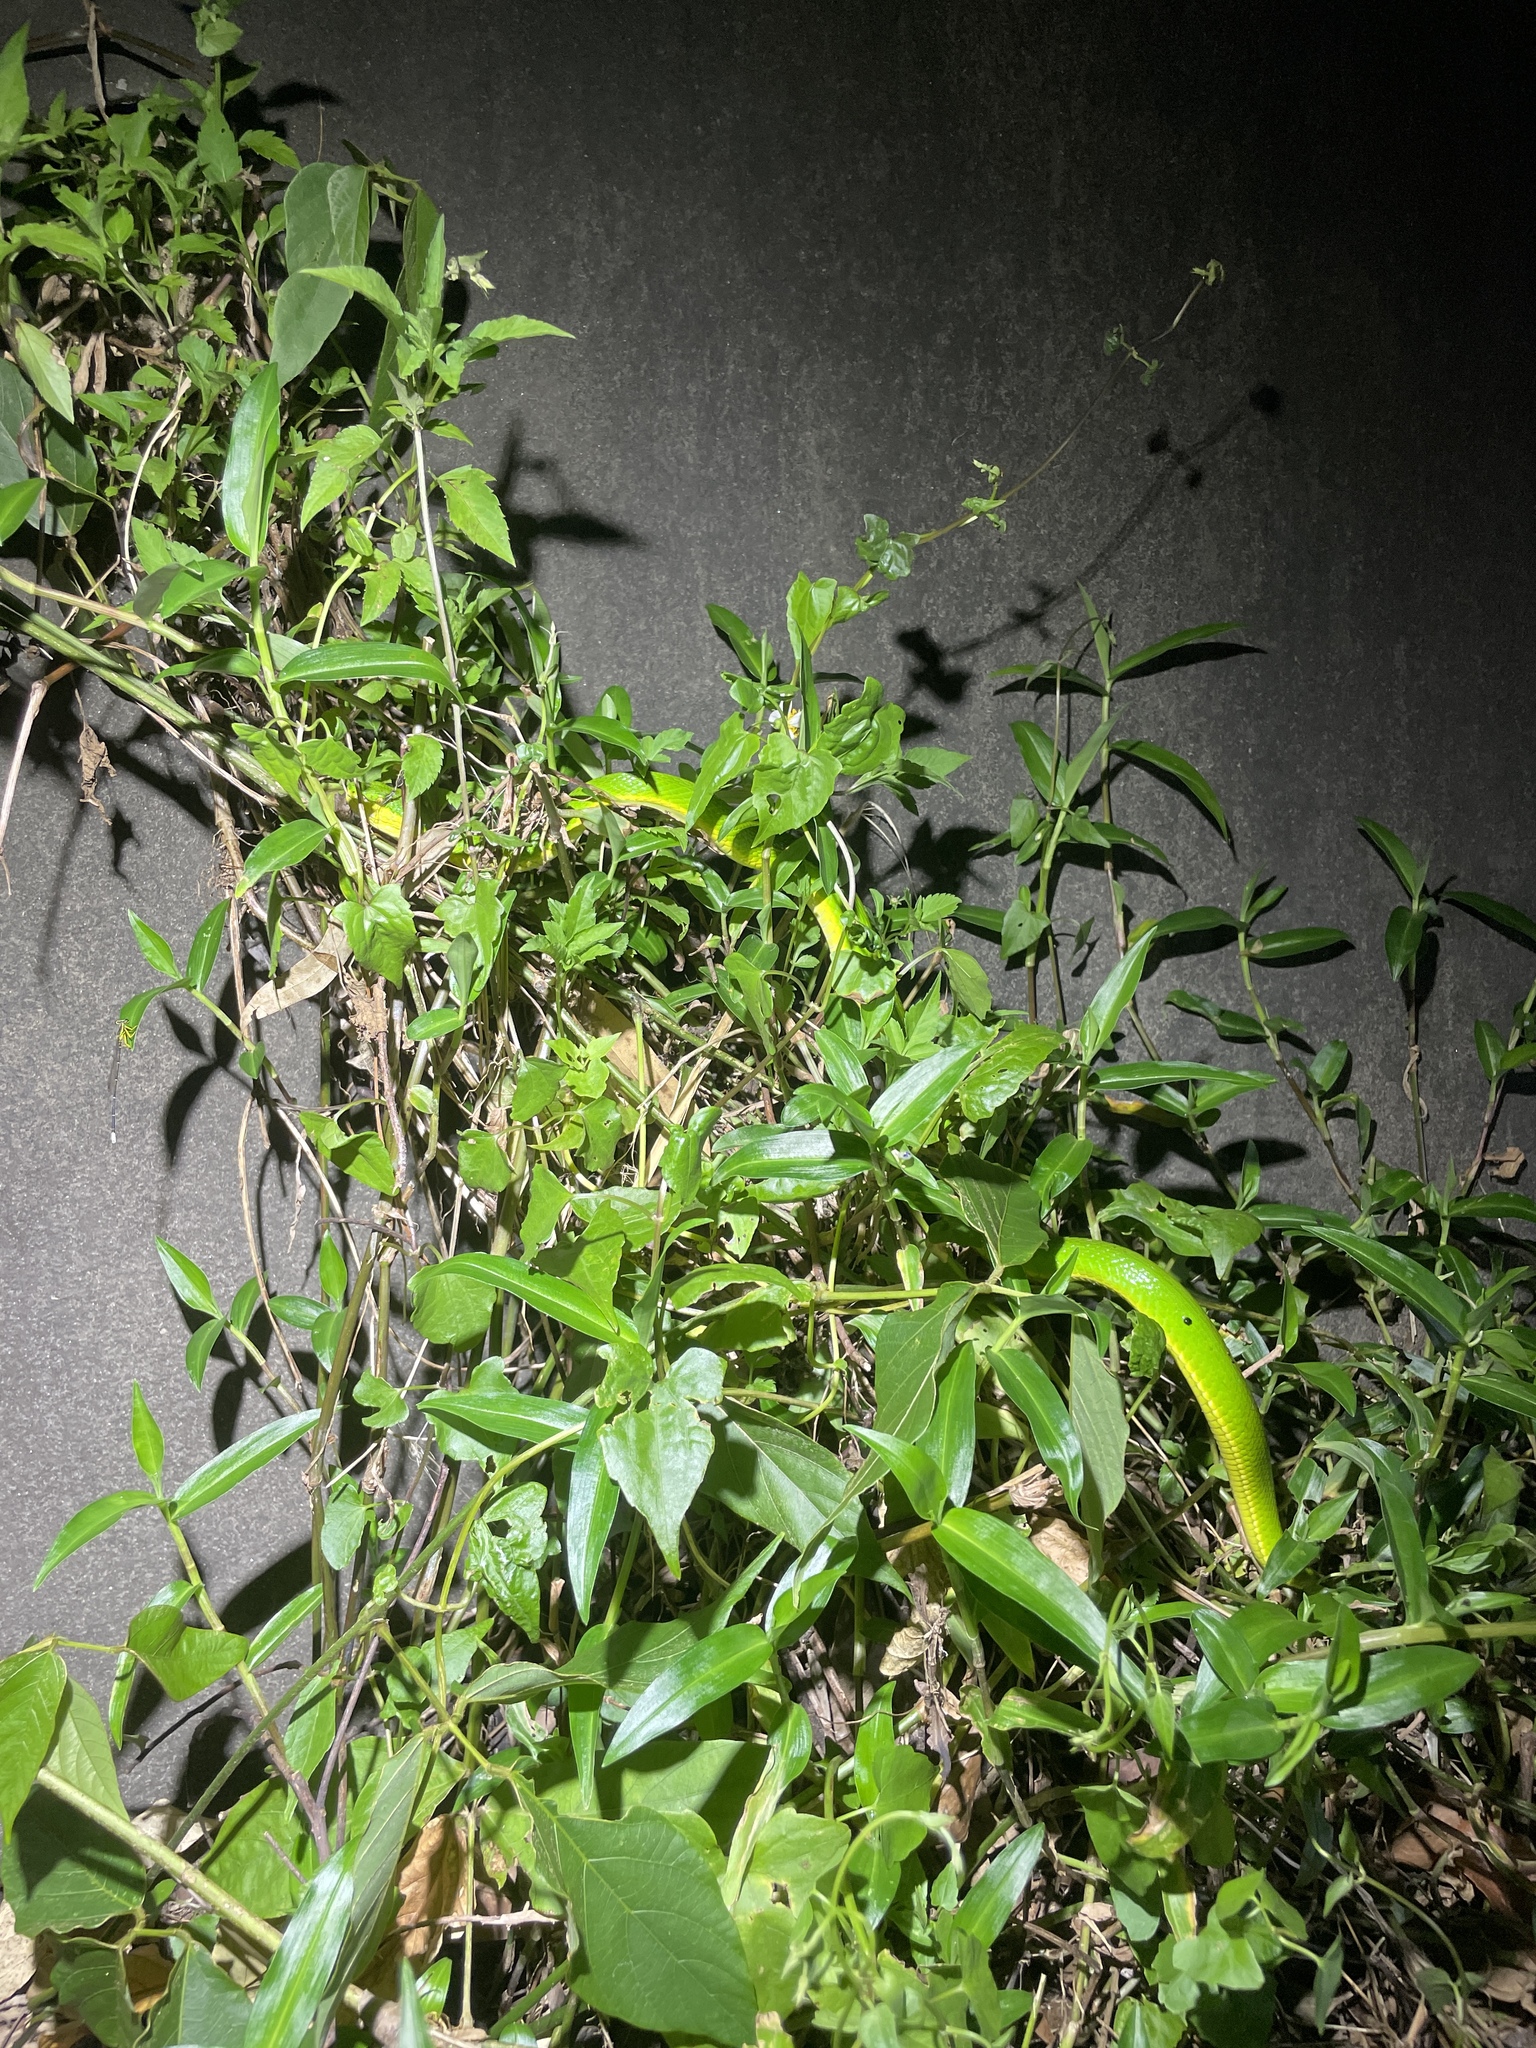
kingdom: Animalia
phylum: Chordata
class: Squamata
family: Viperidae
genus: Trimeresurus
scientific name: Trimeresurus albolabris
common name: White-lipped pitviper
